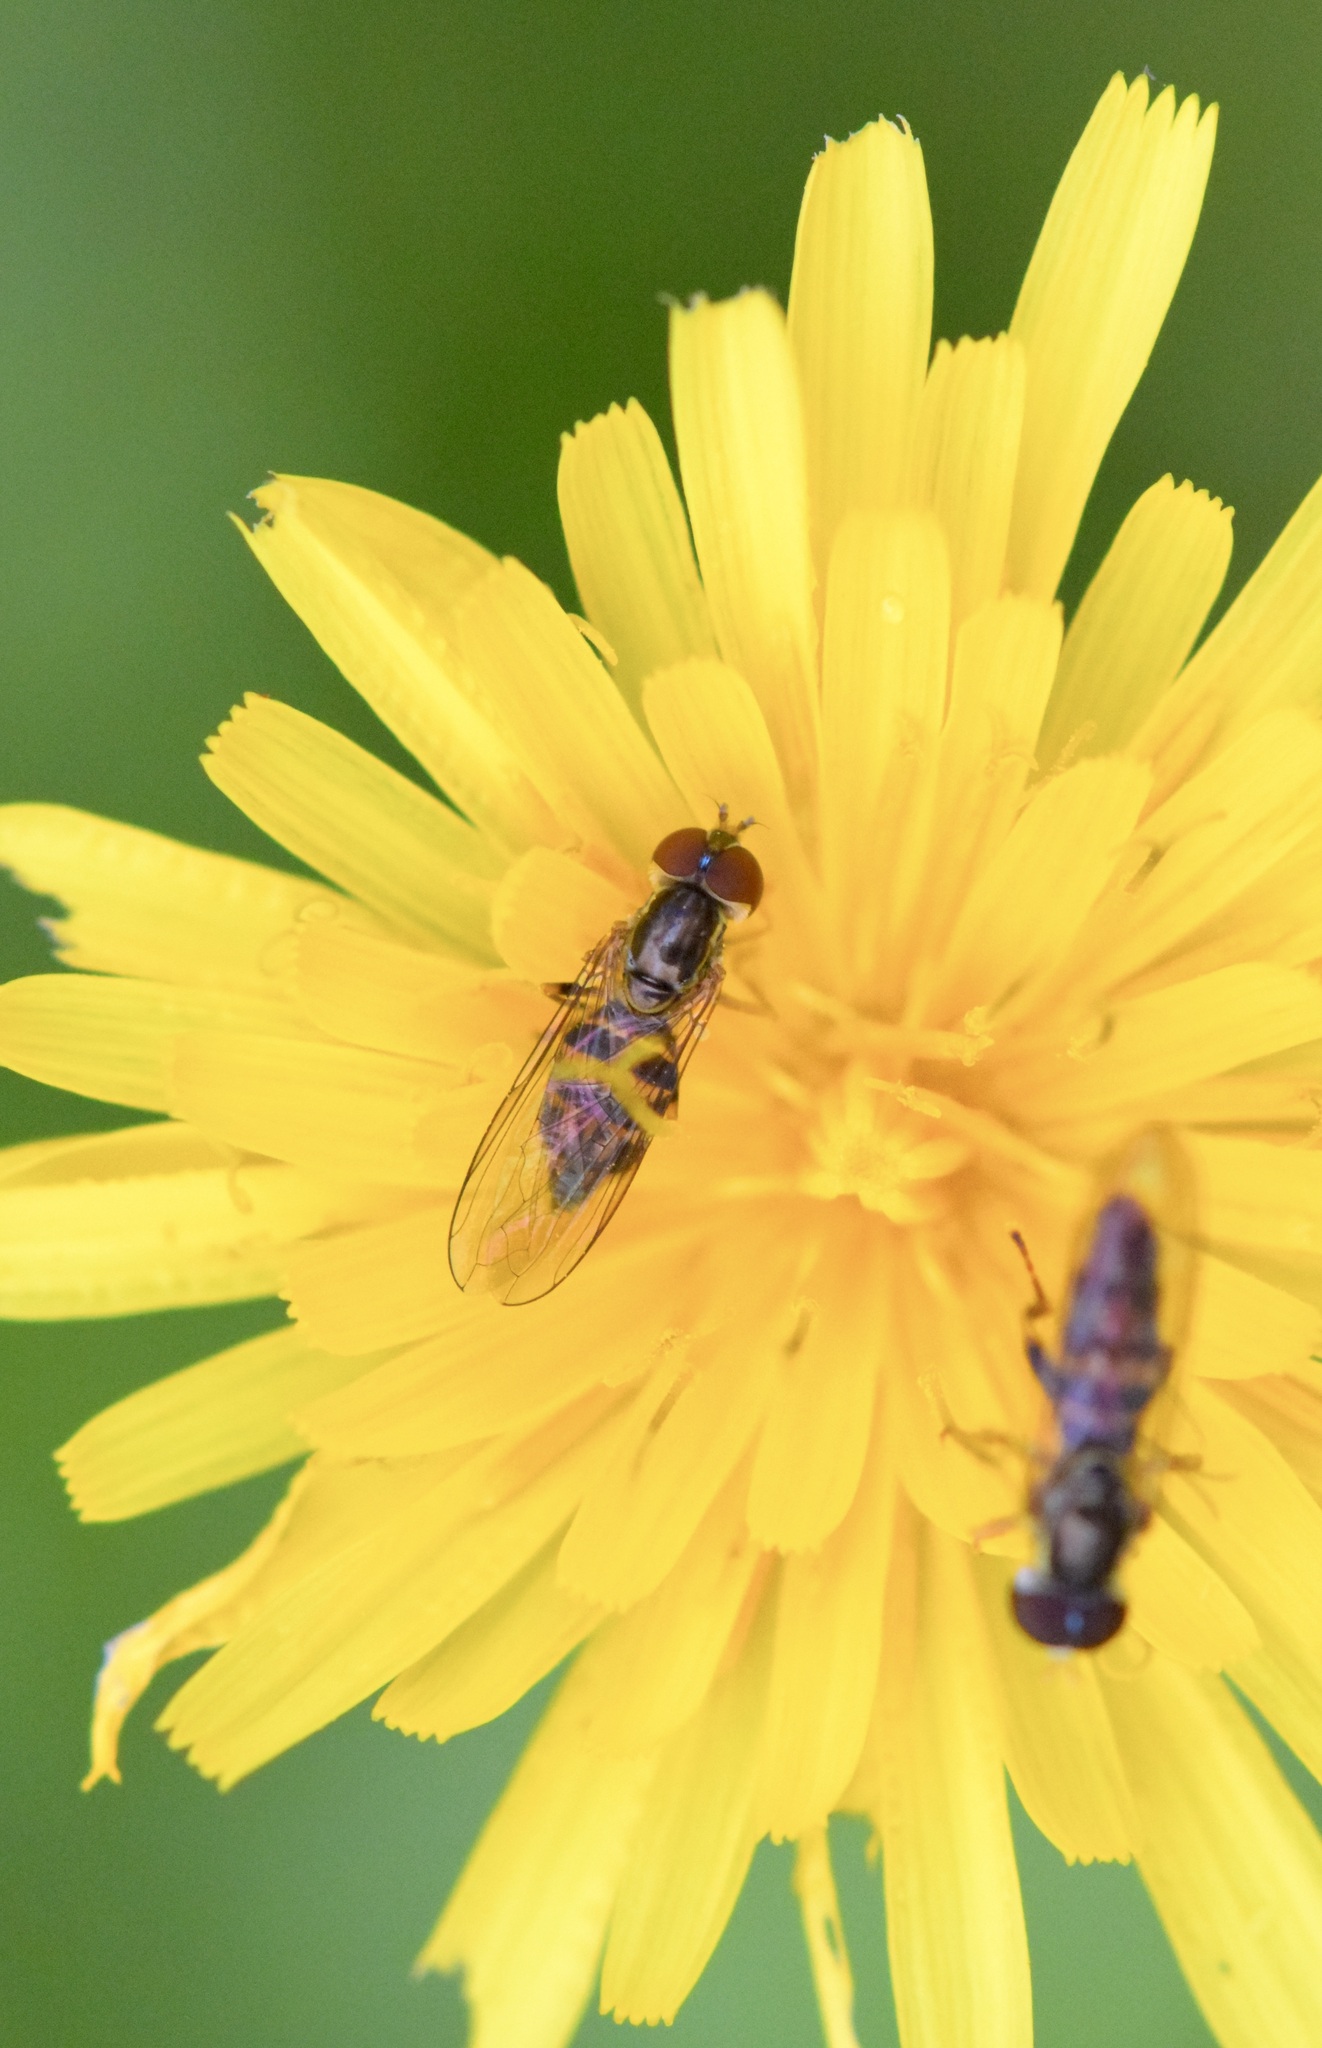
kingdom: Animalia
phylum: Arthropoda
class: Insecta
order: Diptera
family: Syrphidae
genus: Toxomerus
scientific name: Toxomerus geminatus
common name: Eastern calligrapher
